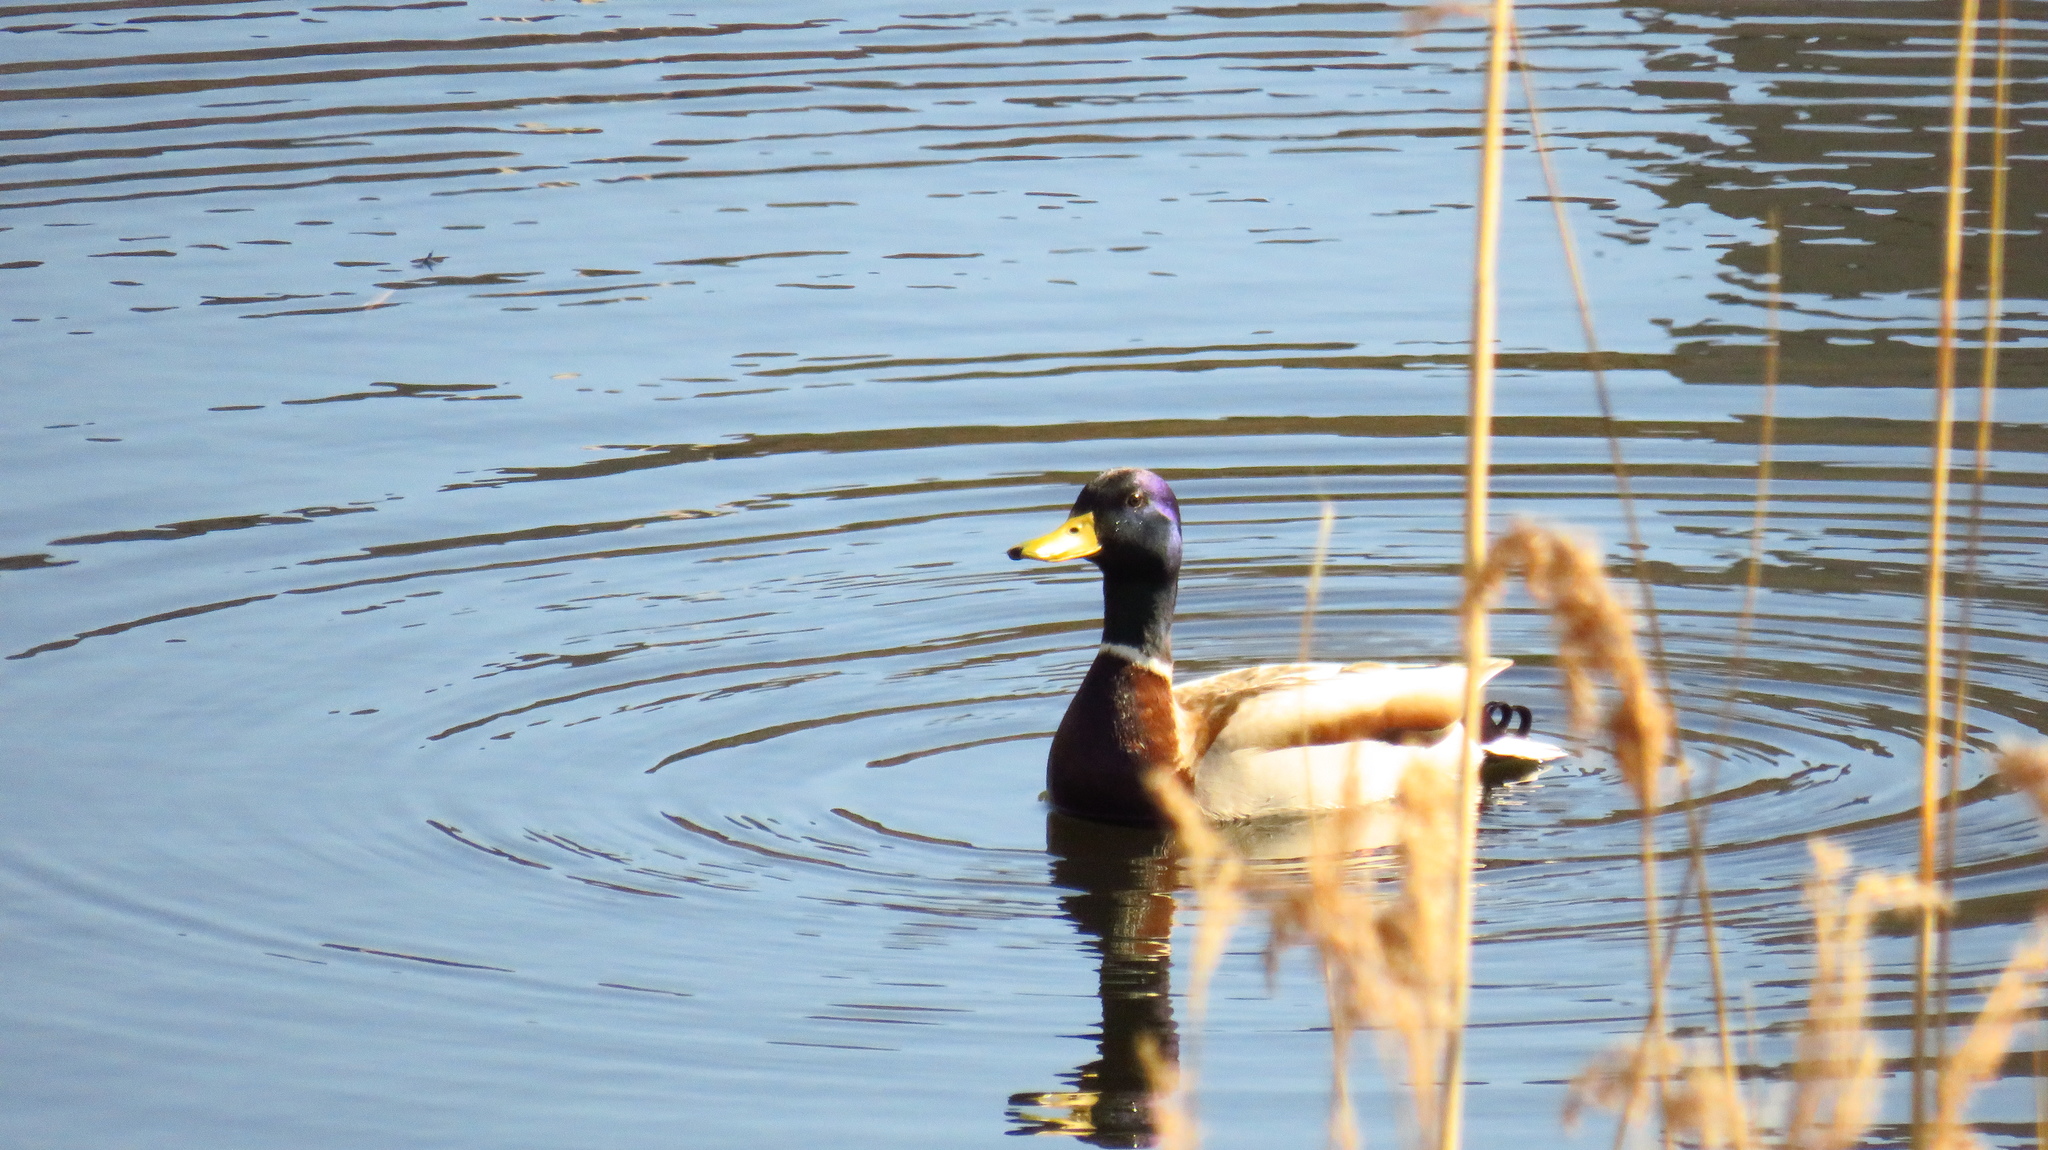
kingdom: Animalia
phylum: Chordata
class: Aves
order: Anseriformes
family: Anatidae
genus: Anas
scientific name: Anas platyrhynchos
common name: Mallard
